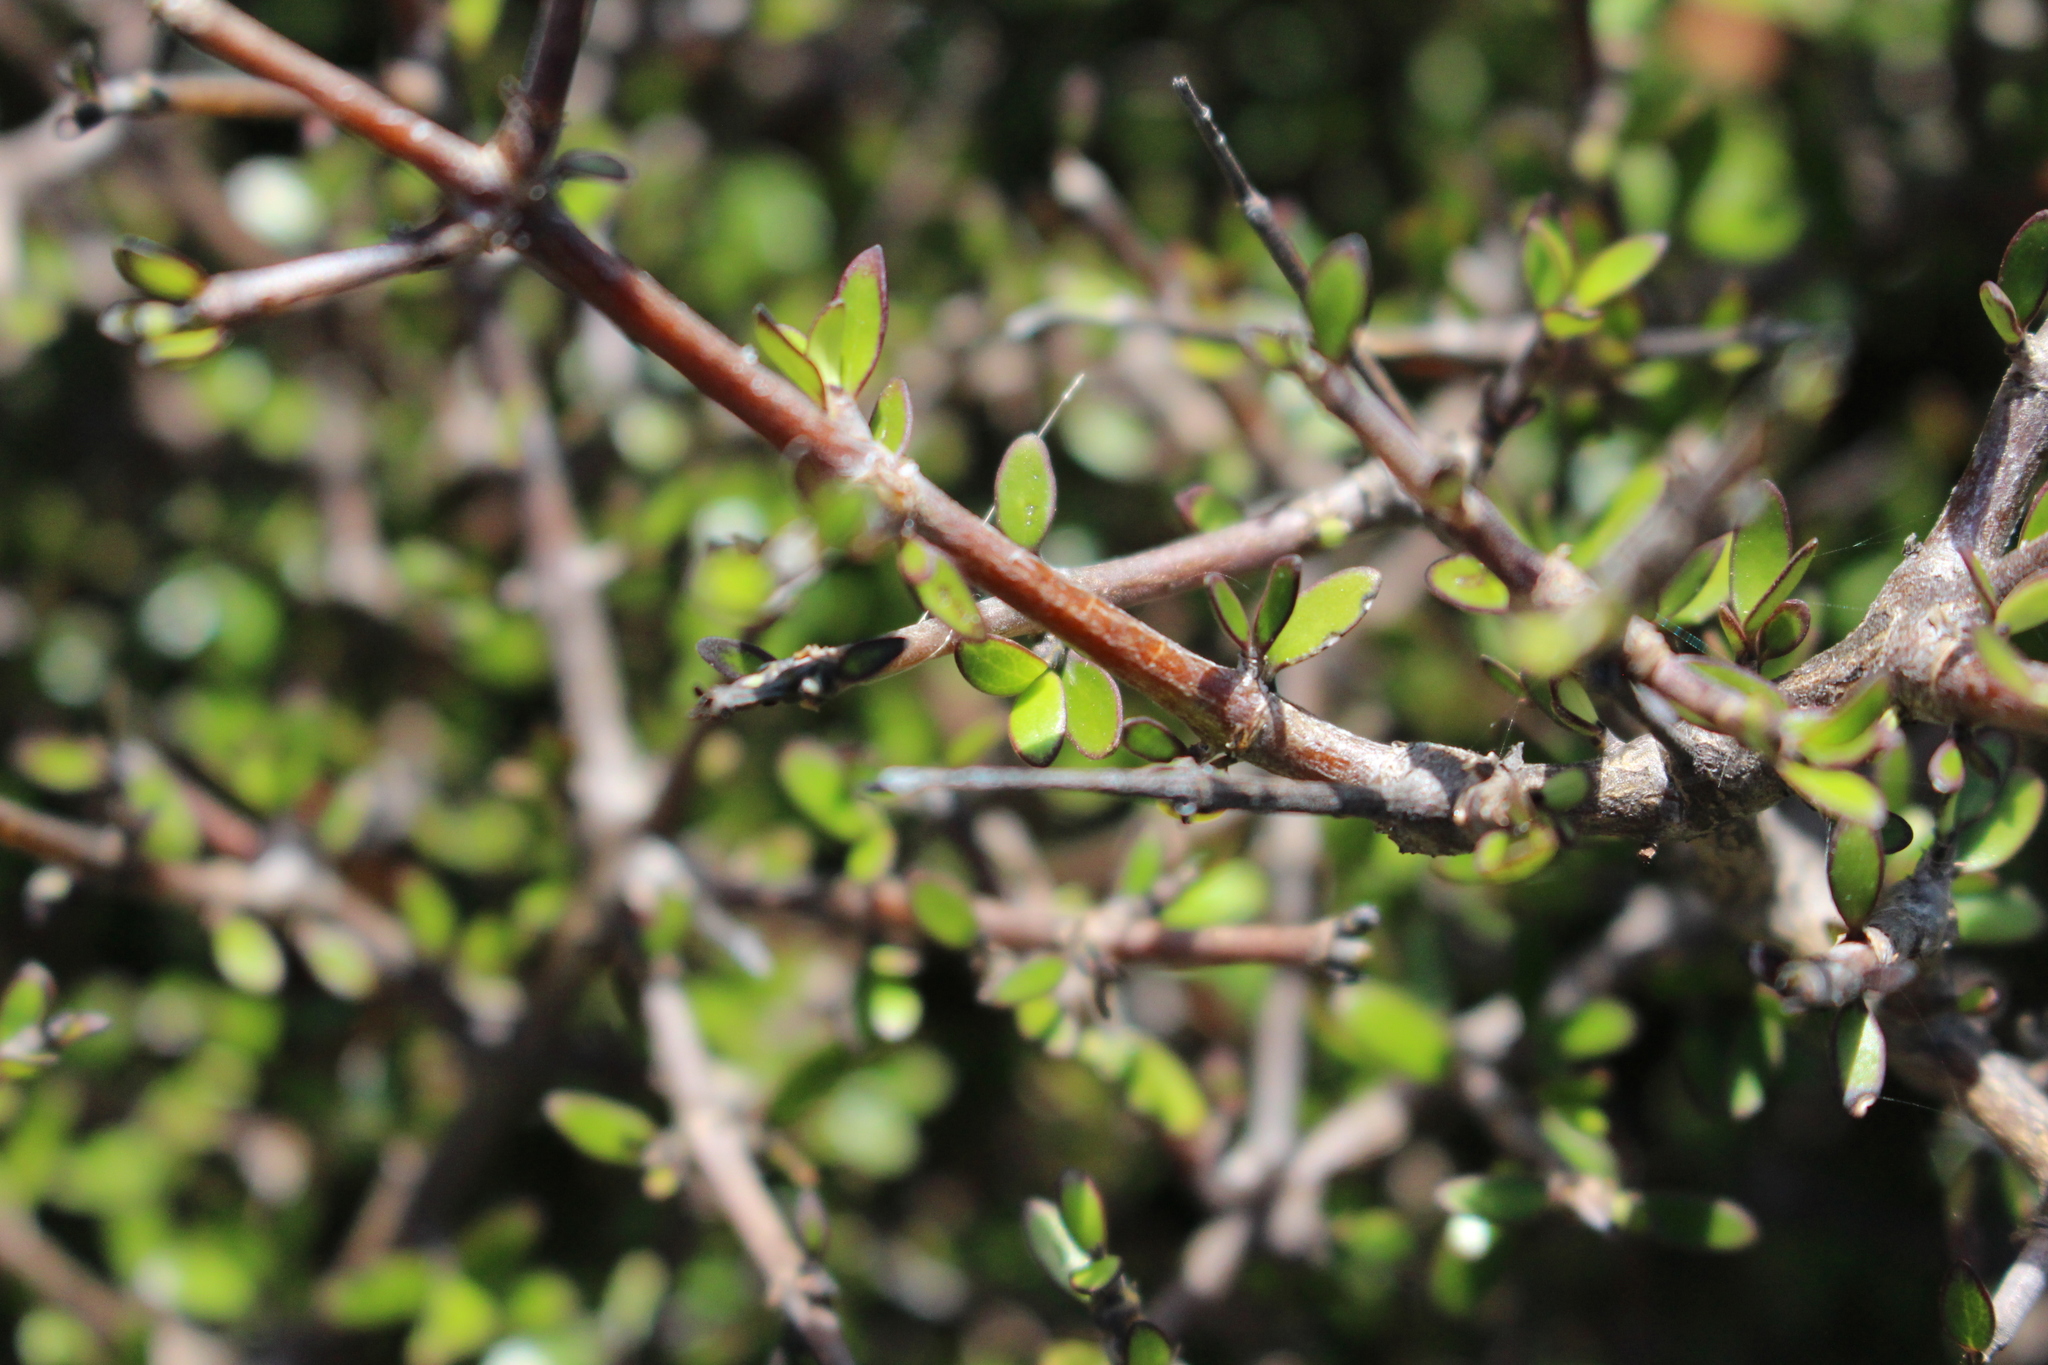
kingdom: Plantae
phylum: Tracheophyta
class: Magnoliopsida
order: Gentianales
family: Rubiaceae
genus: Coprosma
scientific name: Coprosma propinqua
